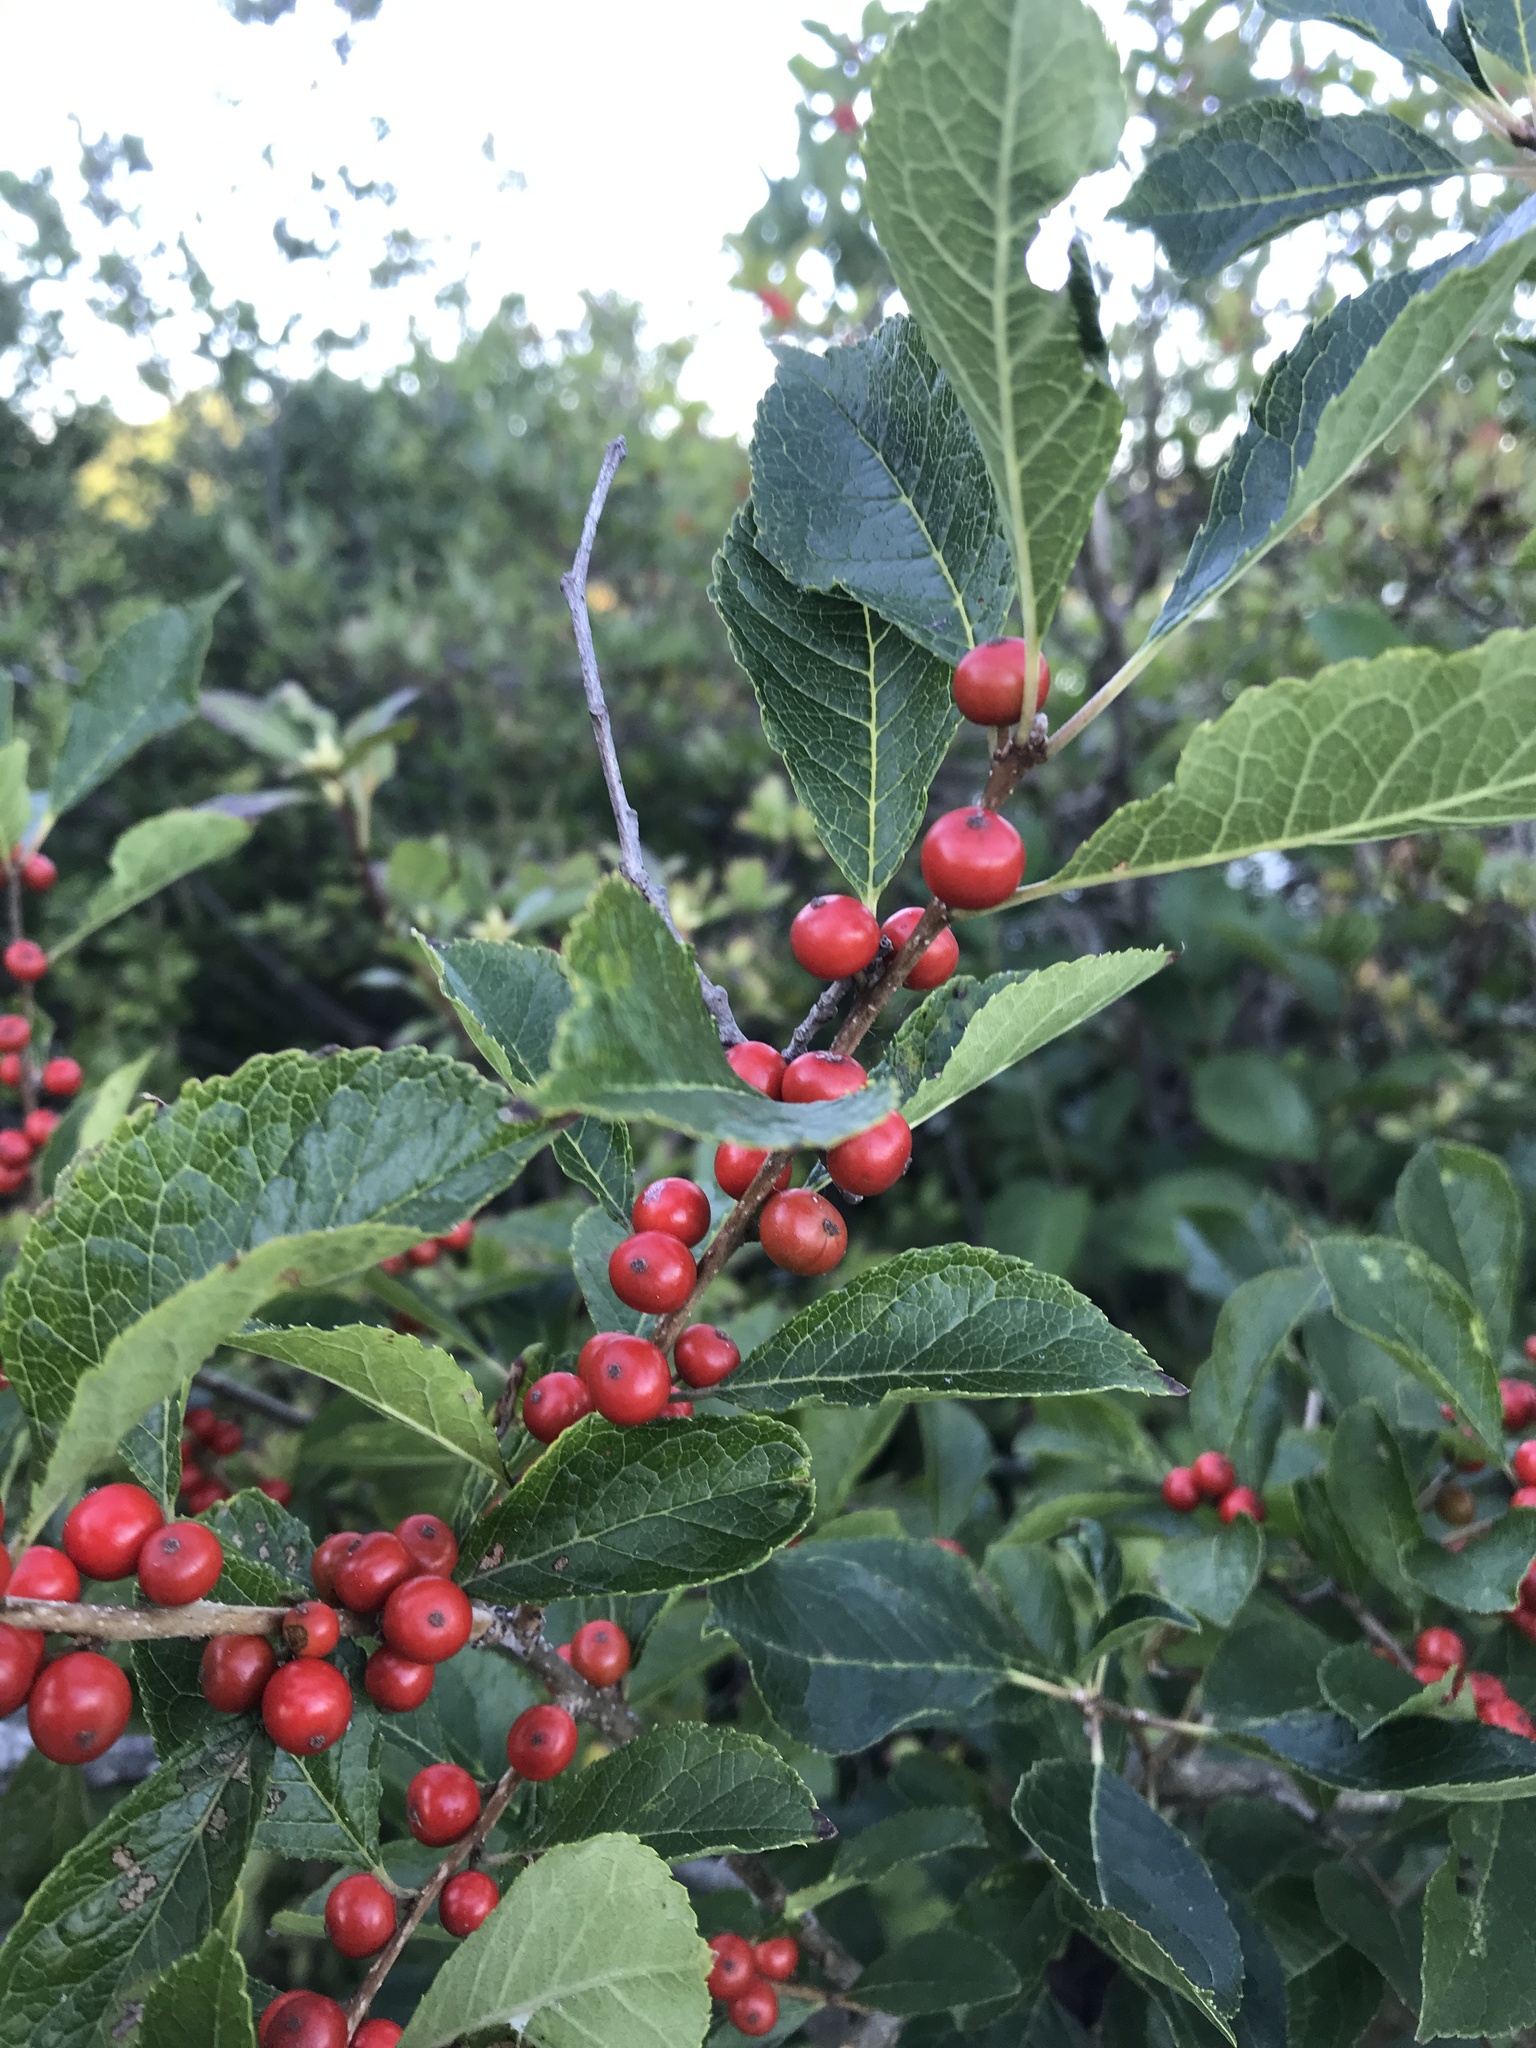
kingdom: Plantae
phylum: Tracheophyta
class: Magnoliopsida
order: Aquifoliales
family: Aquifoliaceae
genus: Ilex
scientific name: Ilex verticillata
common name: Virginia winterberry
